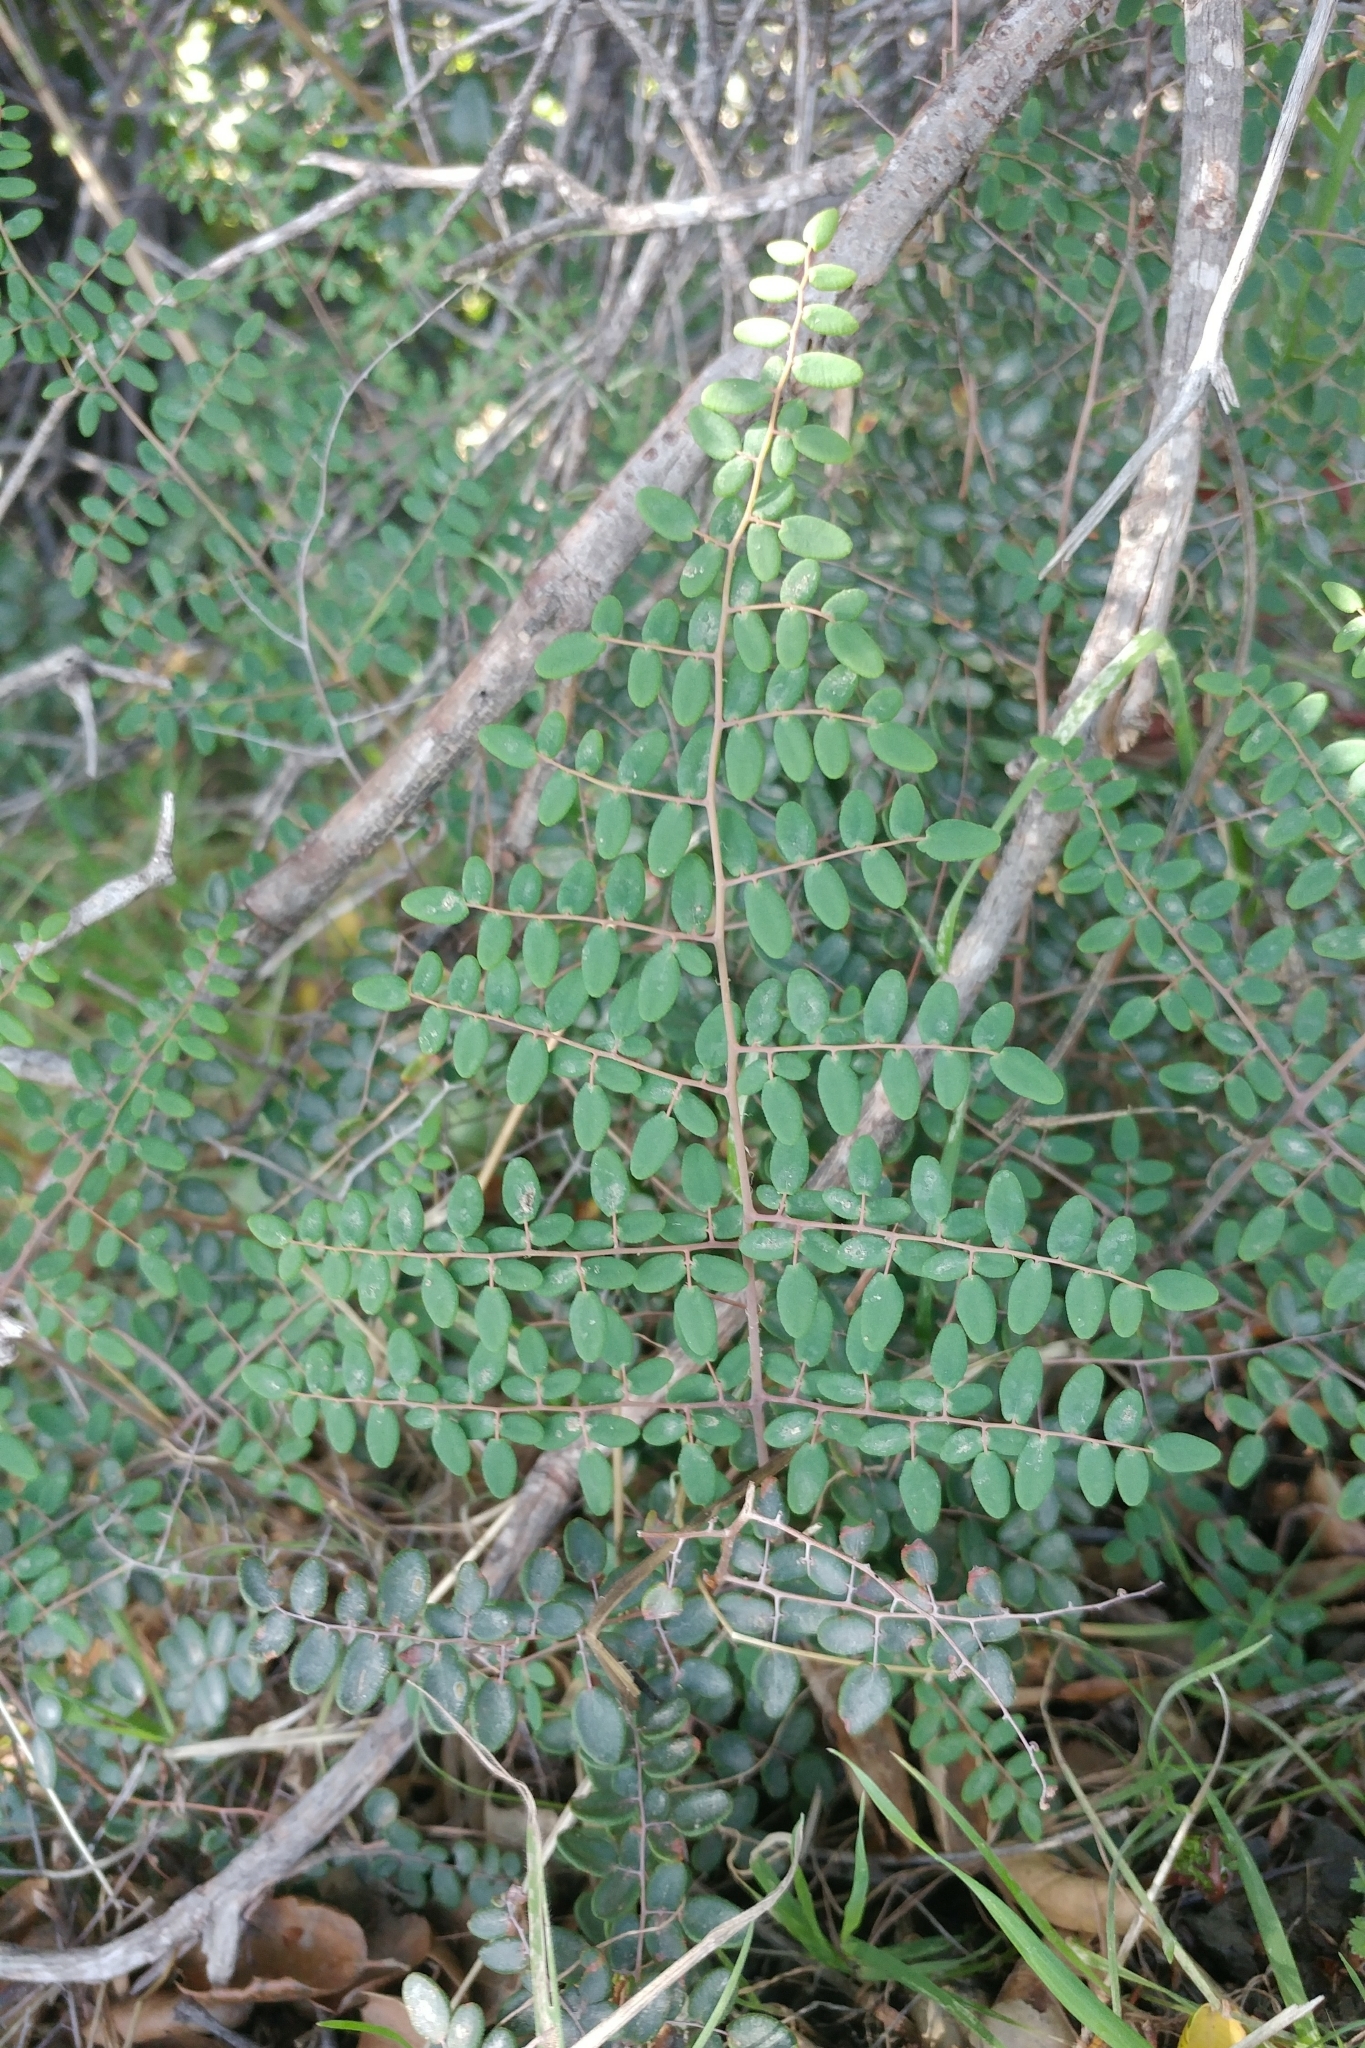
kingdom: Plantae
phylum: Tracheophyta
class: Polypodiopsida
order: Polypodiales
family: Pteridaceae
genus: Pellaea
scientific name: Pellaea andromedifolia
